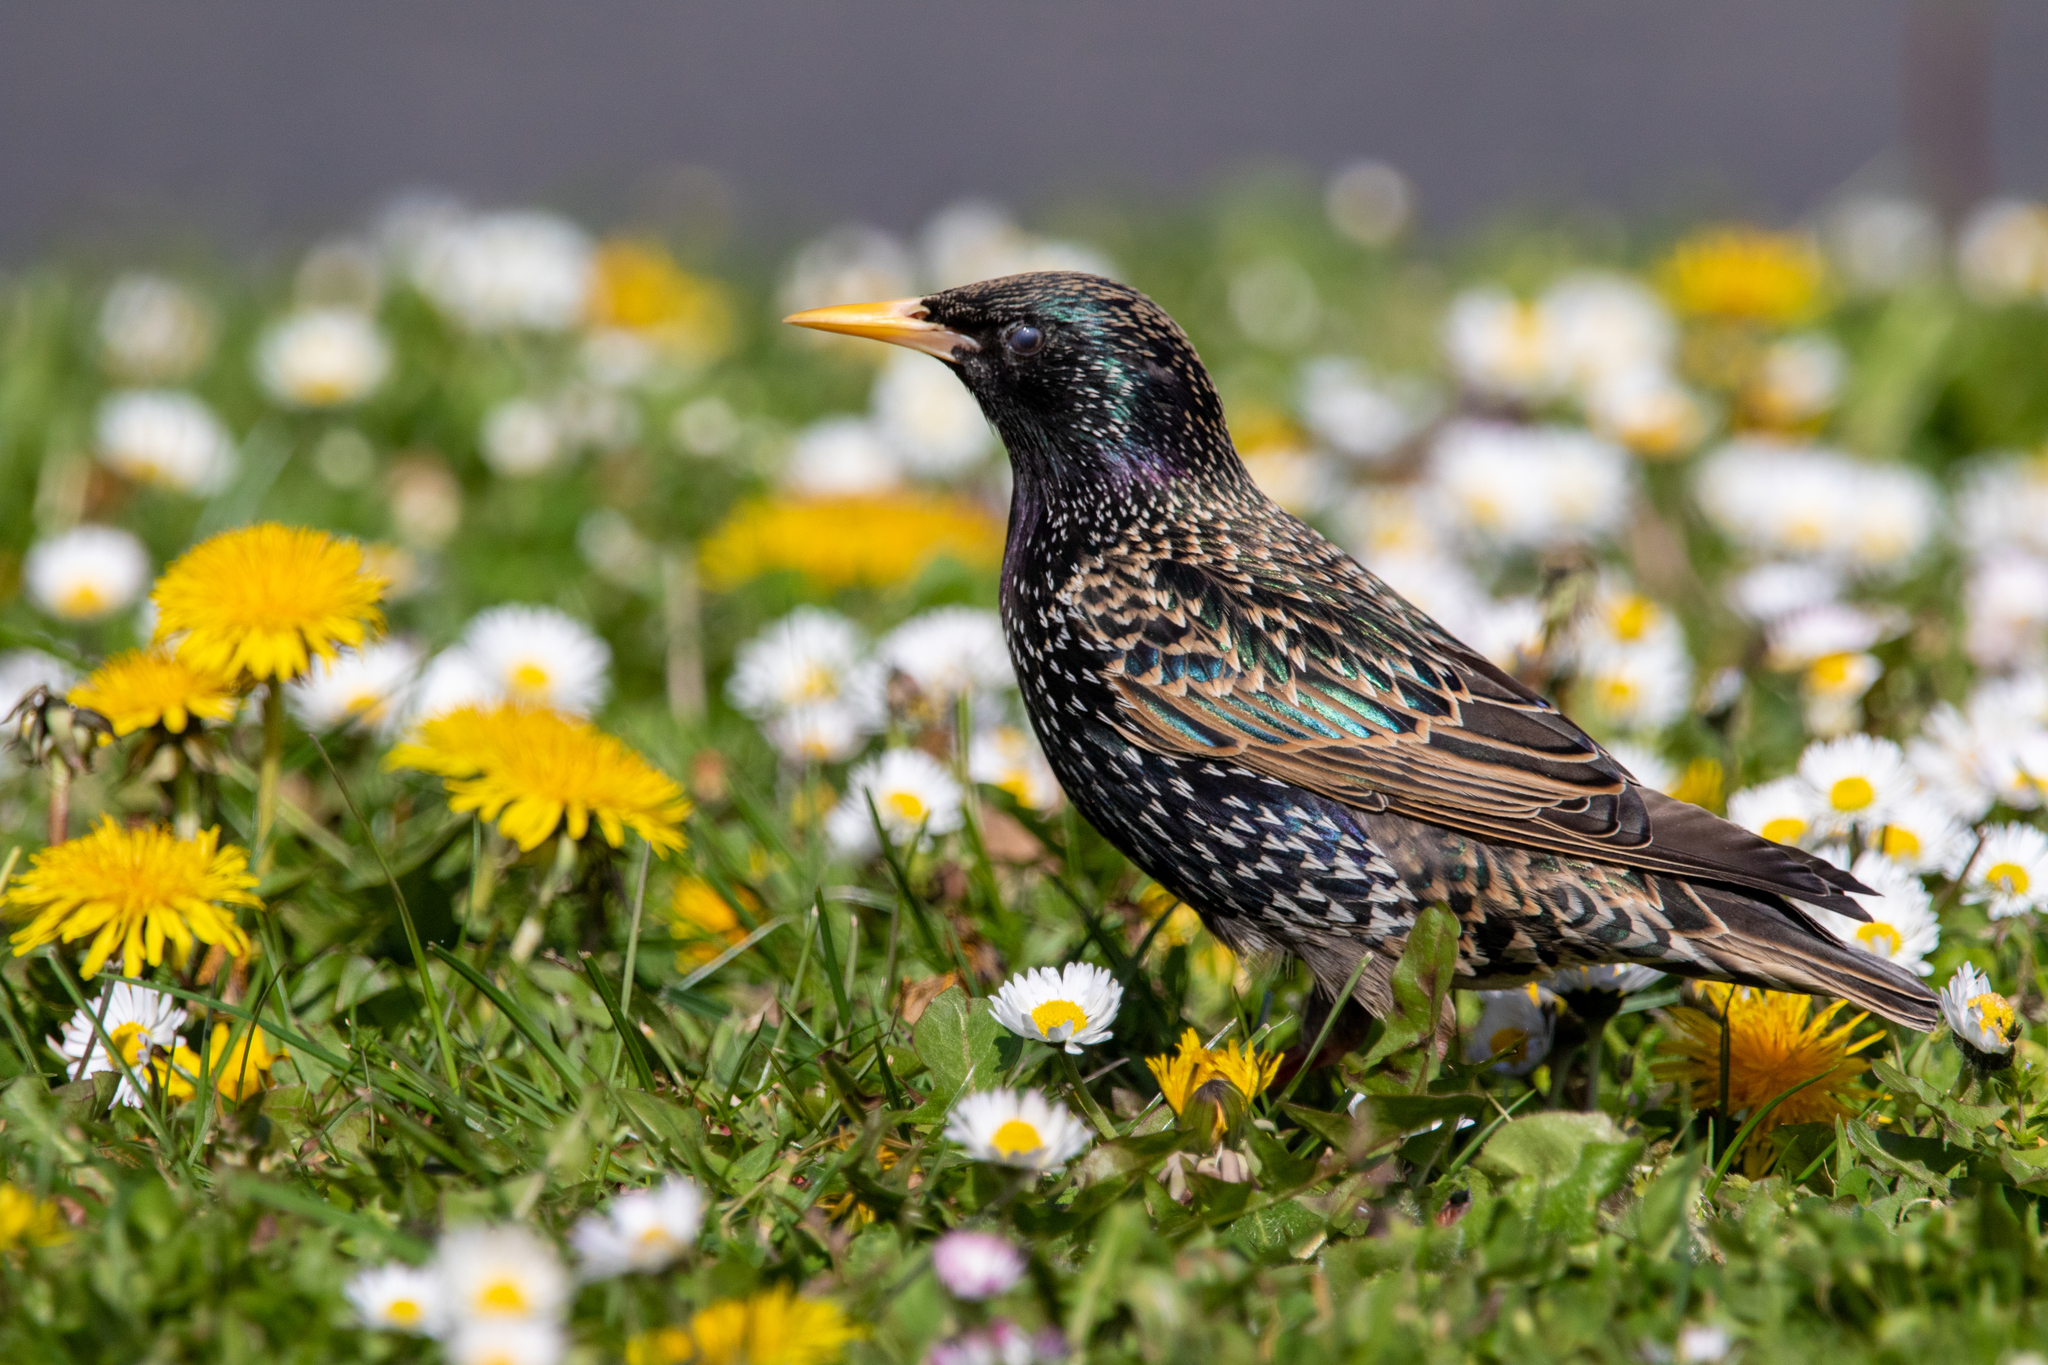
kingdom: Animalia
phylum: Chordata
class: Aves
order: Passeriformes
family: Sturnidae
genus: Sturnus
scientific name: Sturnus vulgaris
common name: Common starling
